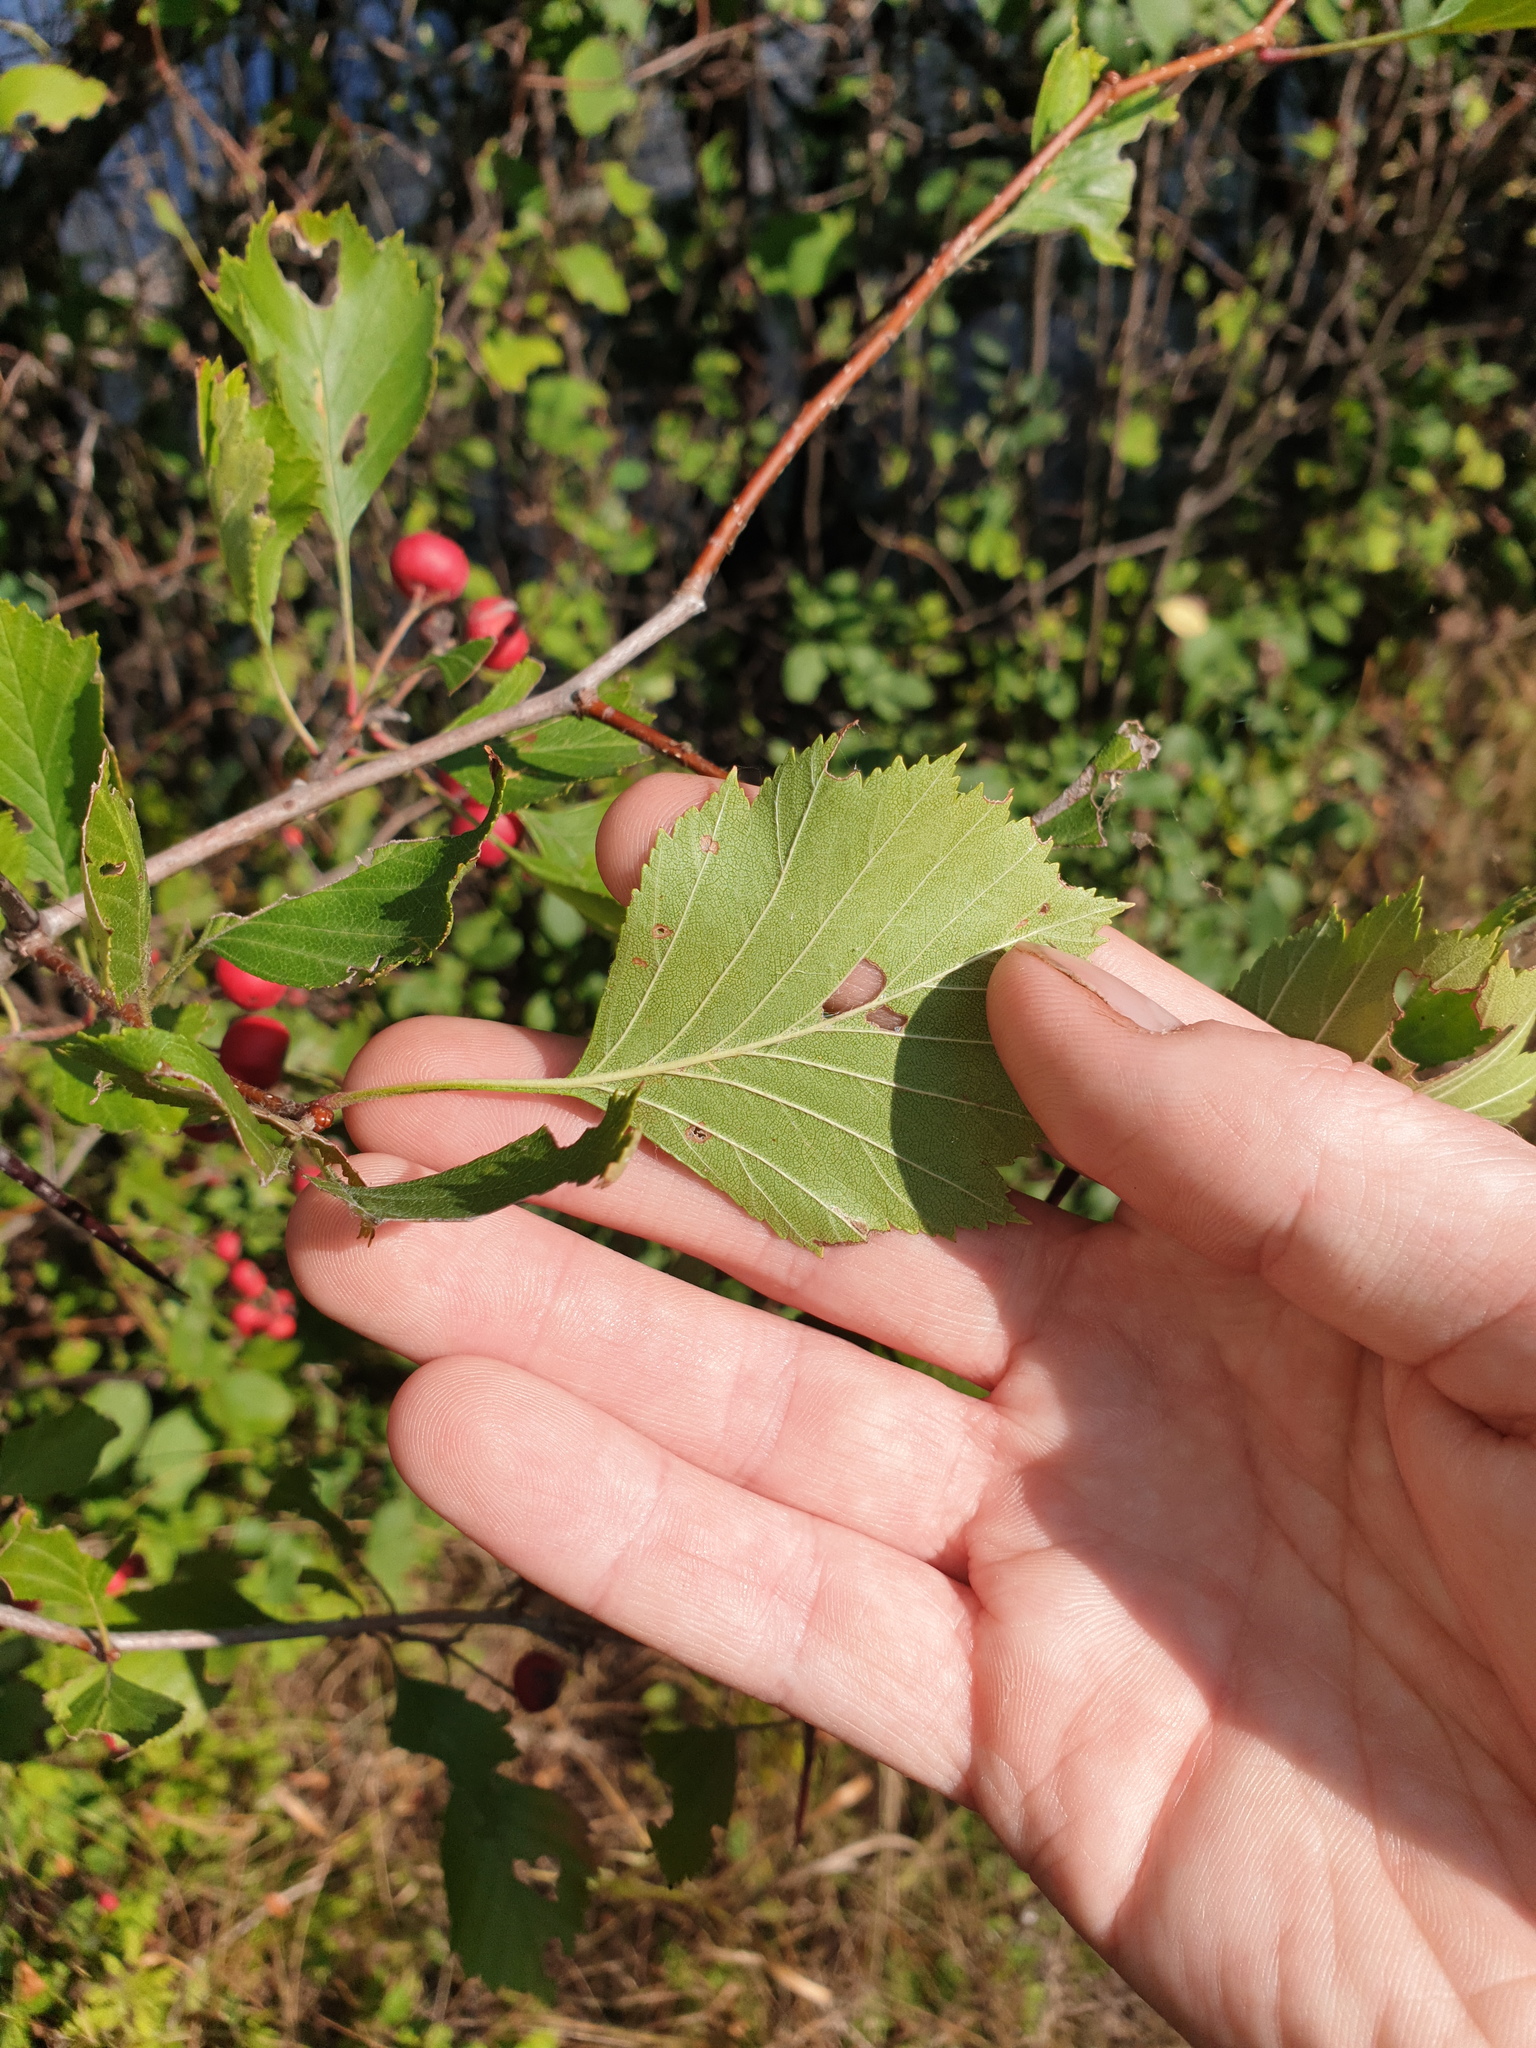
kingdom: Plantae
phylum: Tracheophyta
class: Magnoliopsida
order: Rosales
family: Rosaceae
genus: Crataegus
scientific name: Crataegus chrysocarpa
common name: Fire-berry hawthorn
